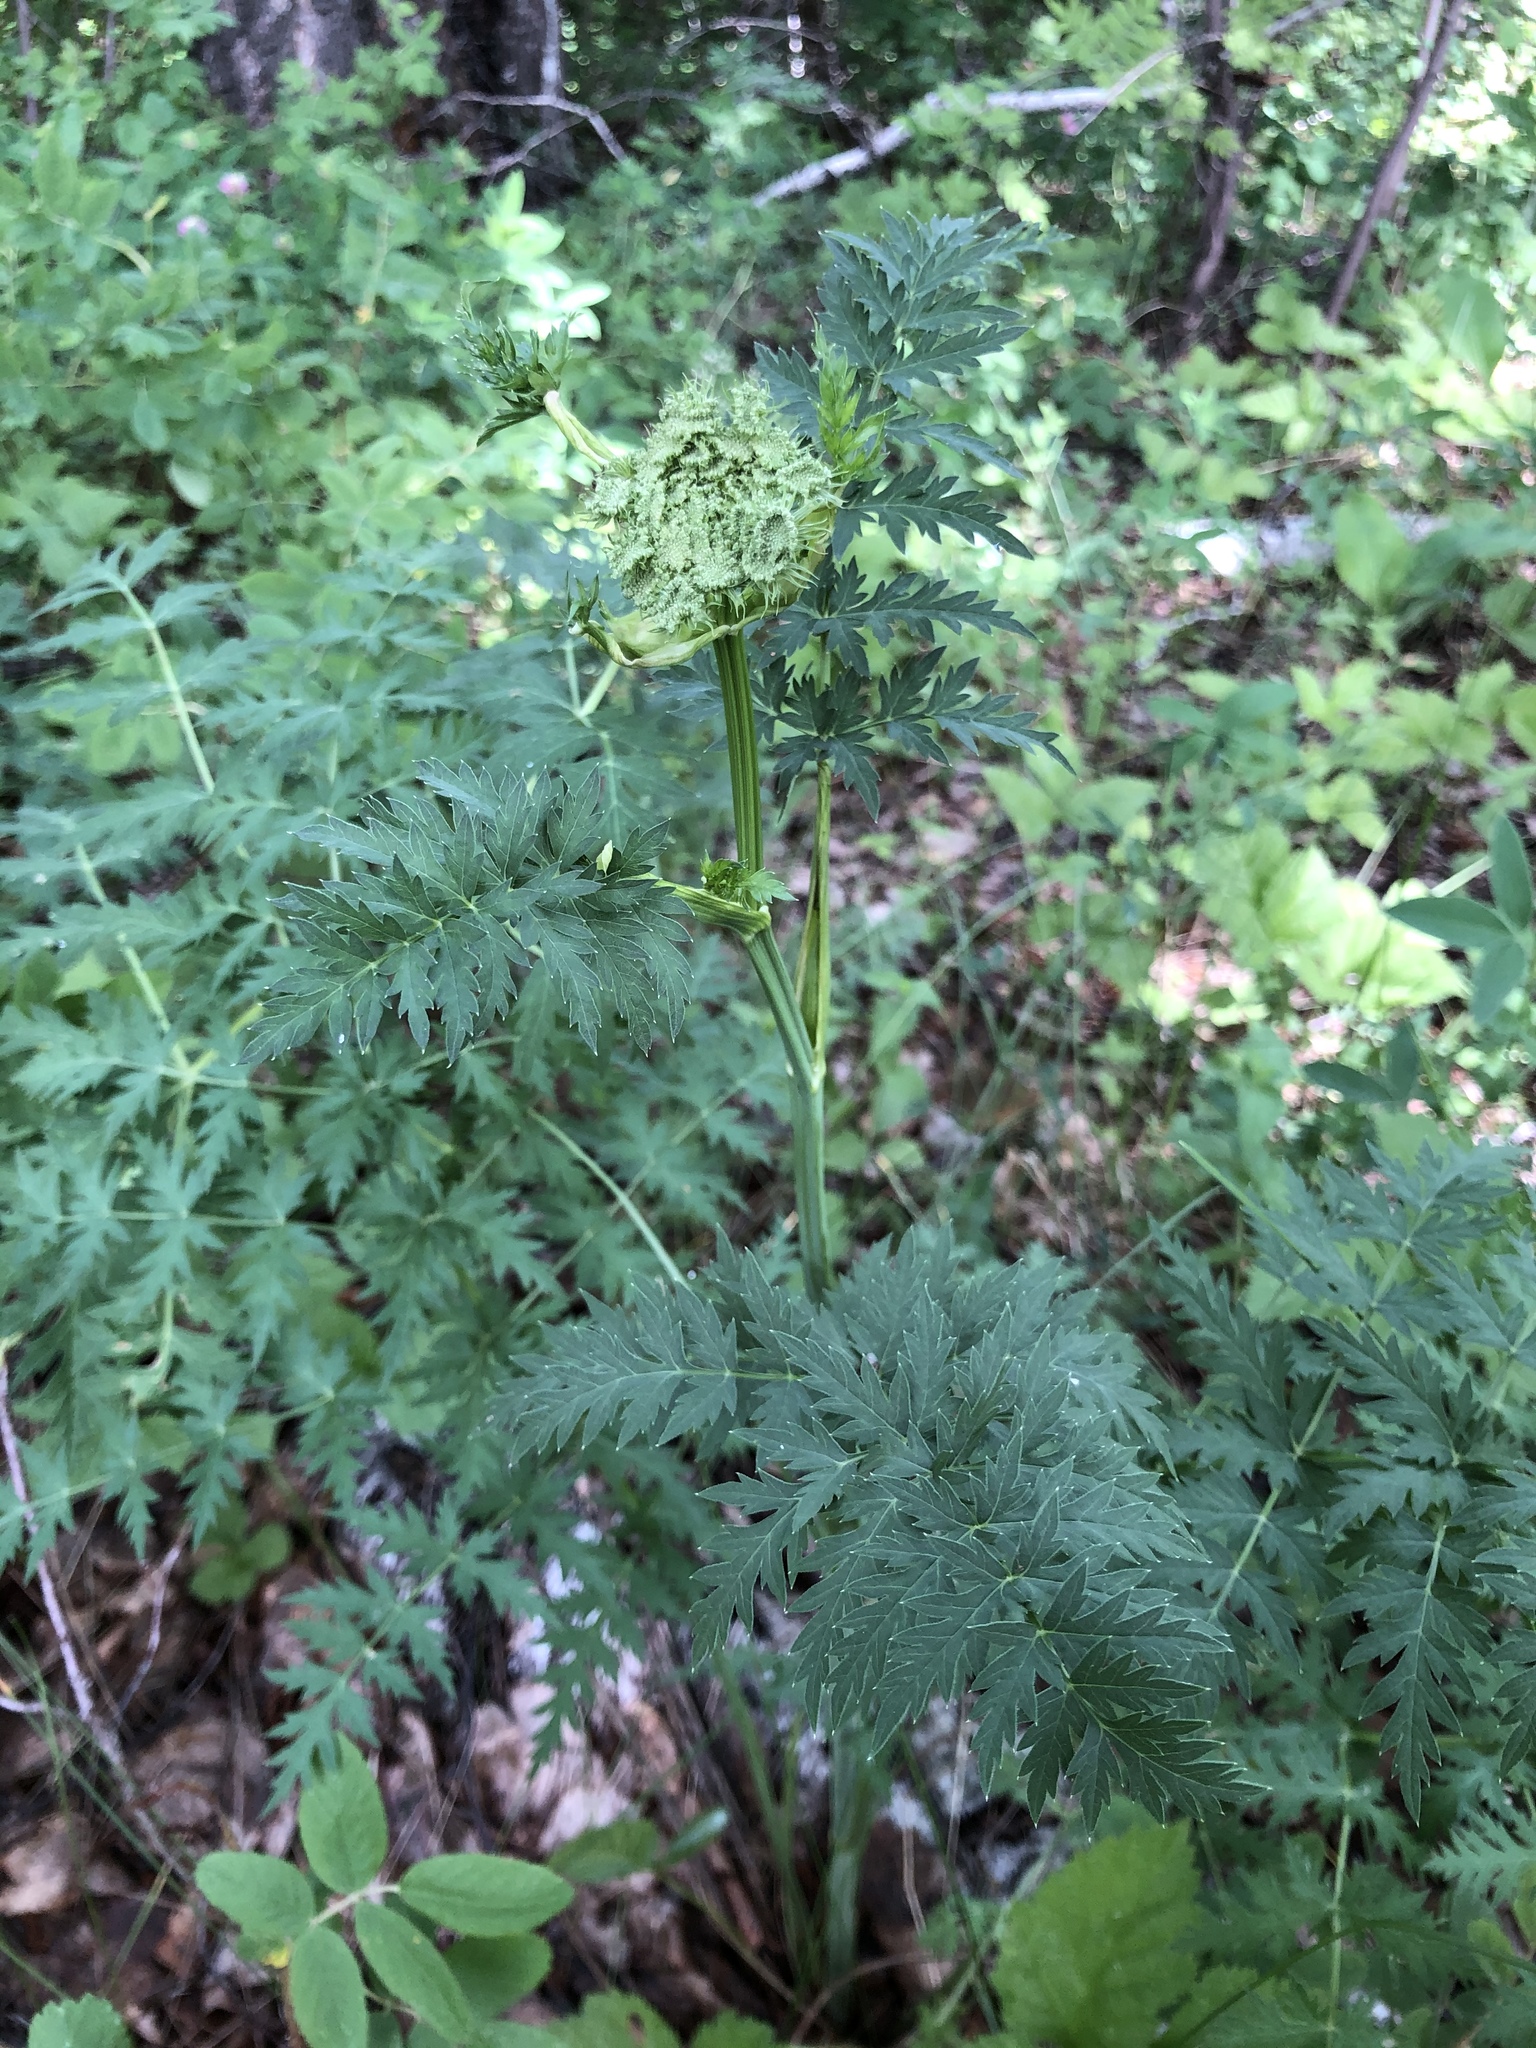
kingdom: Plantae
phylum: Tracheophyta
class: Magnoliopsida
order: Apiales
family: Apiaceae
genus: Seseli
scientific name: Seseli libanotis
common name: Mooncarrot
